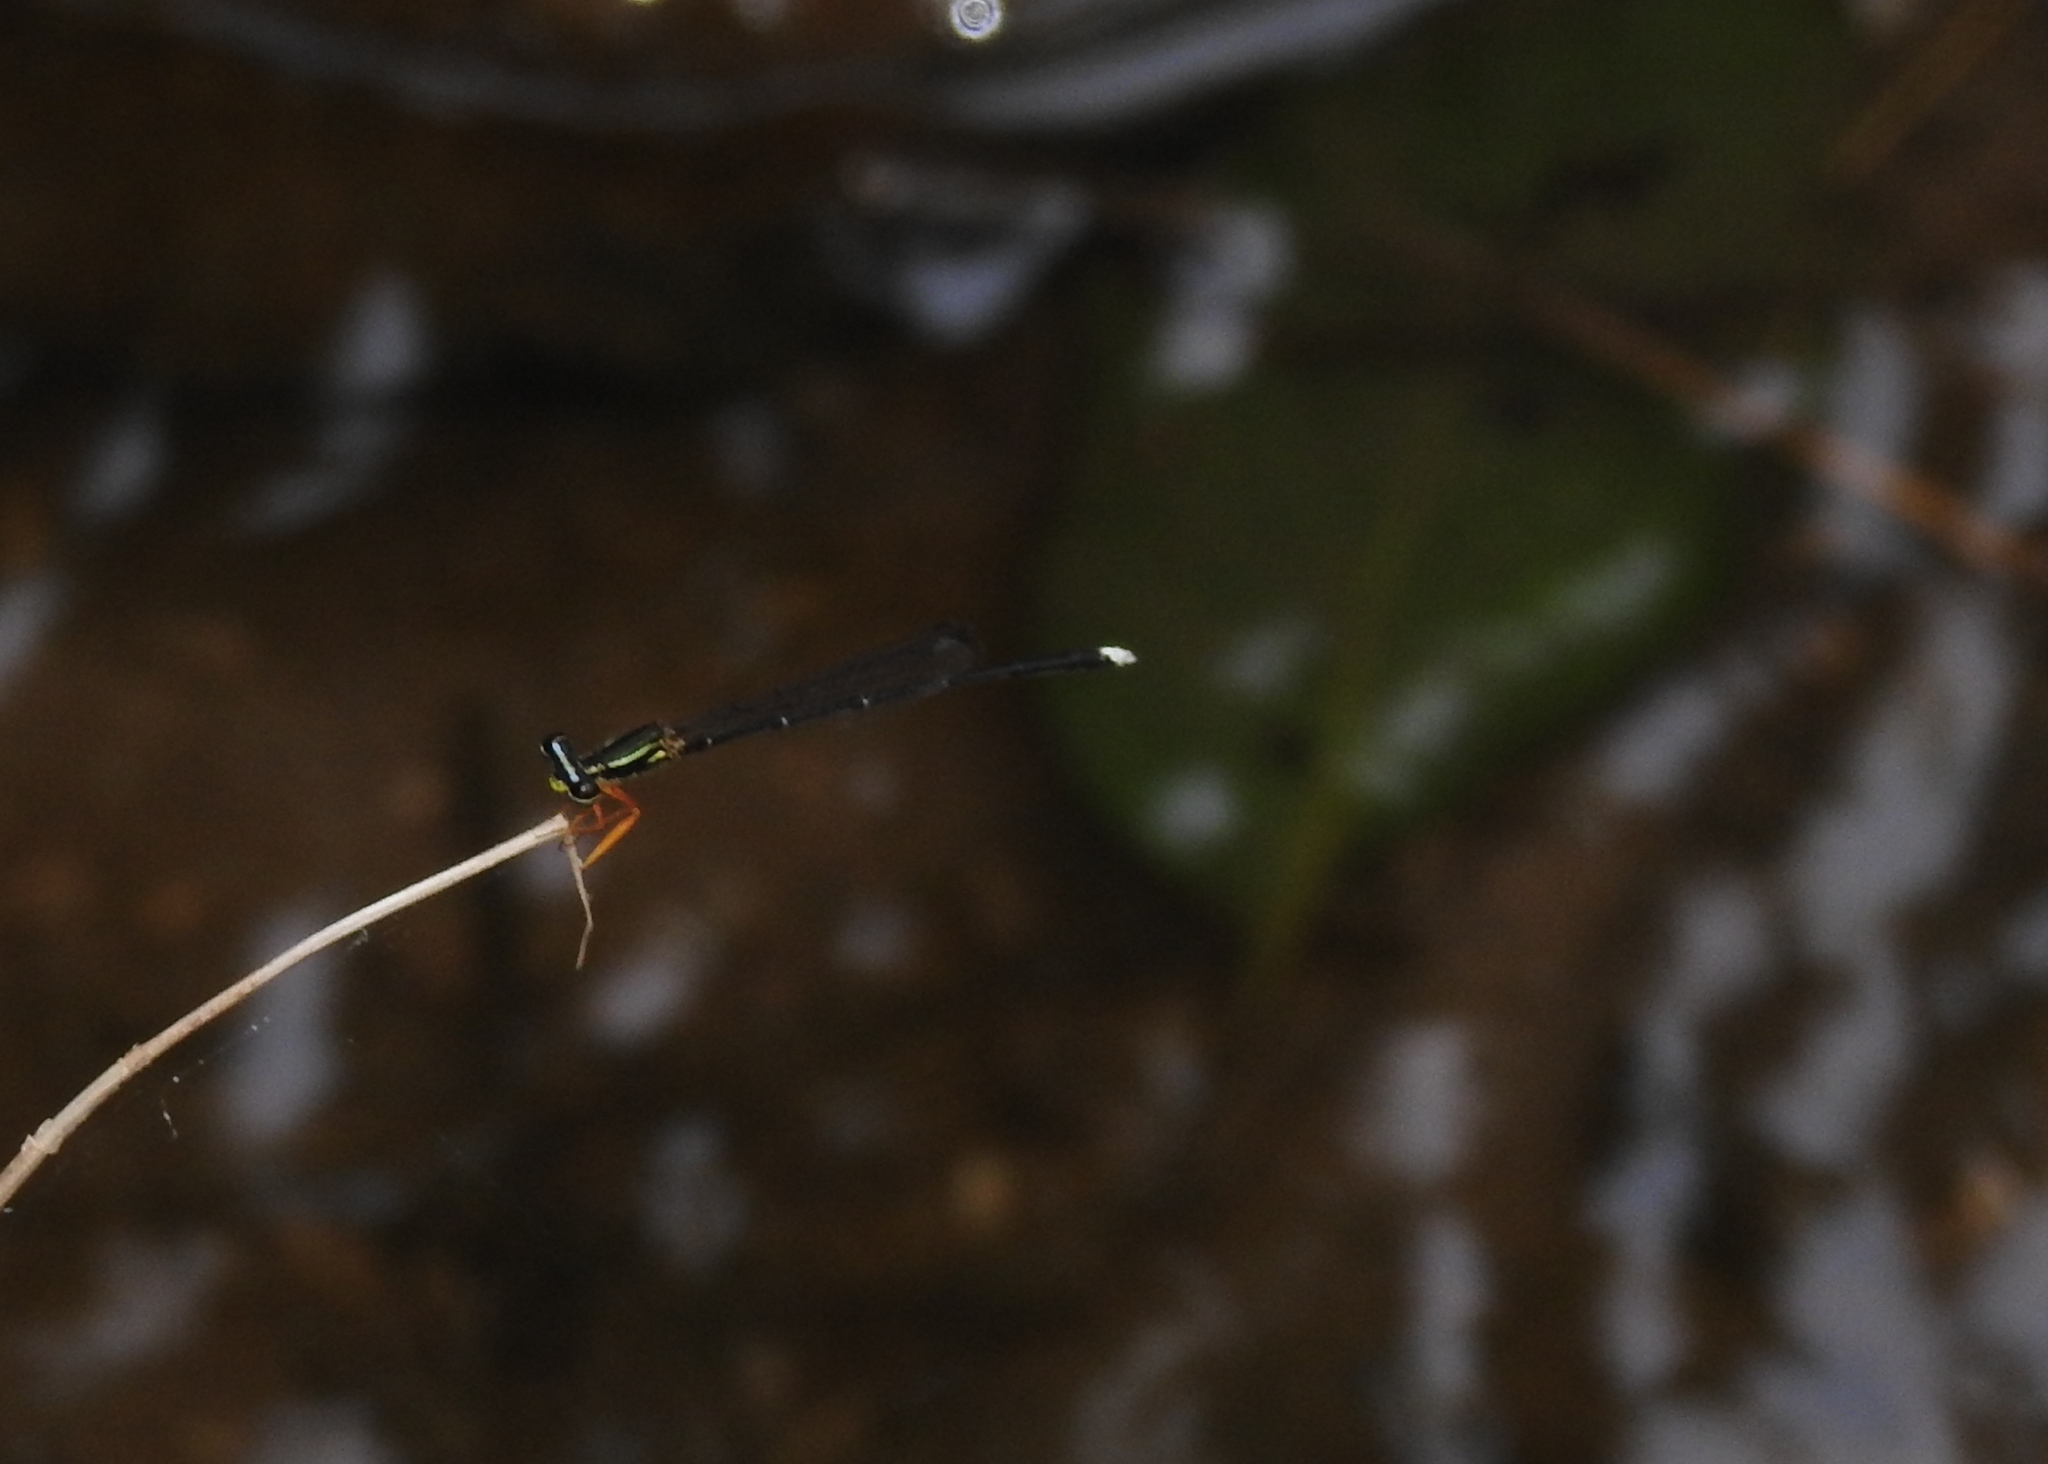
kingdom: Animalia
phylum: Arthropoda
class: Insecta
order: Odonata
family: Platycnemididae
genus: Copera
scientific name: Copera marginipes
